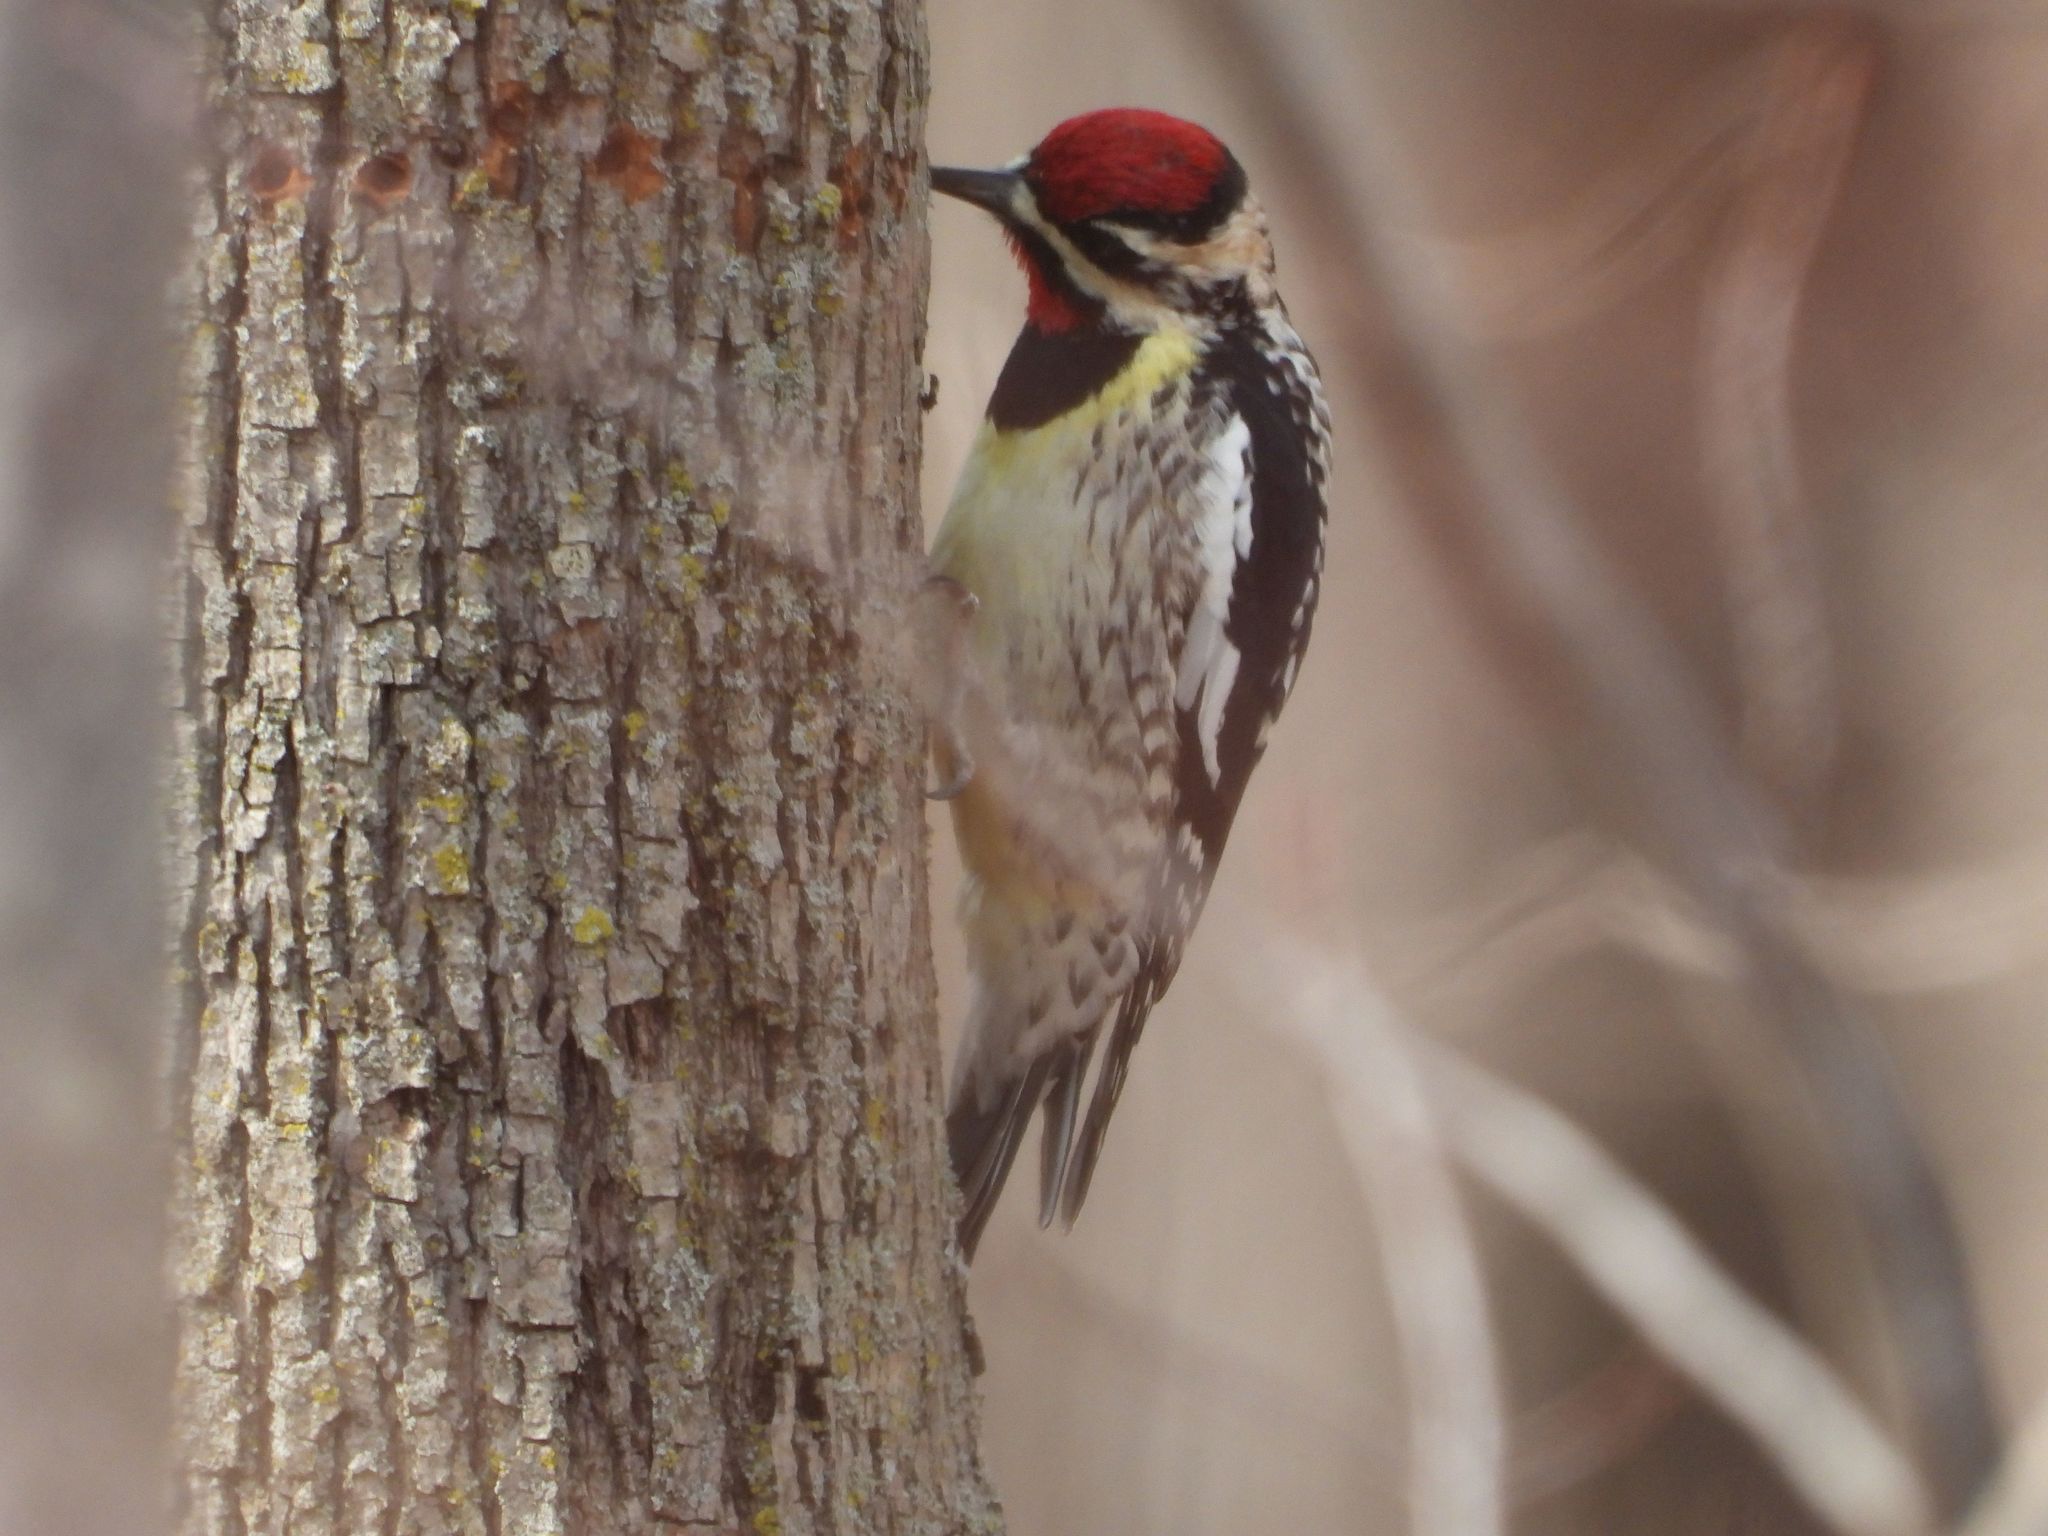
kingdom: Animalia
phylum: Chordata
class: Aves
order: Piciformes
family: Picidae
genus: Sphyrapicus
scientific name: Sphyrapicus varius
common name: Yellow-bellied sapsucker
